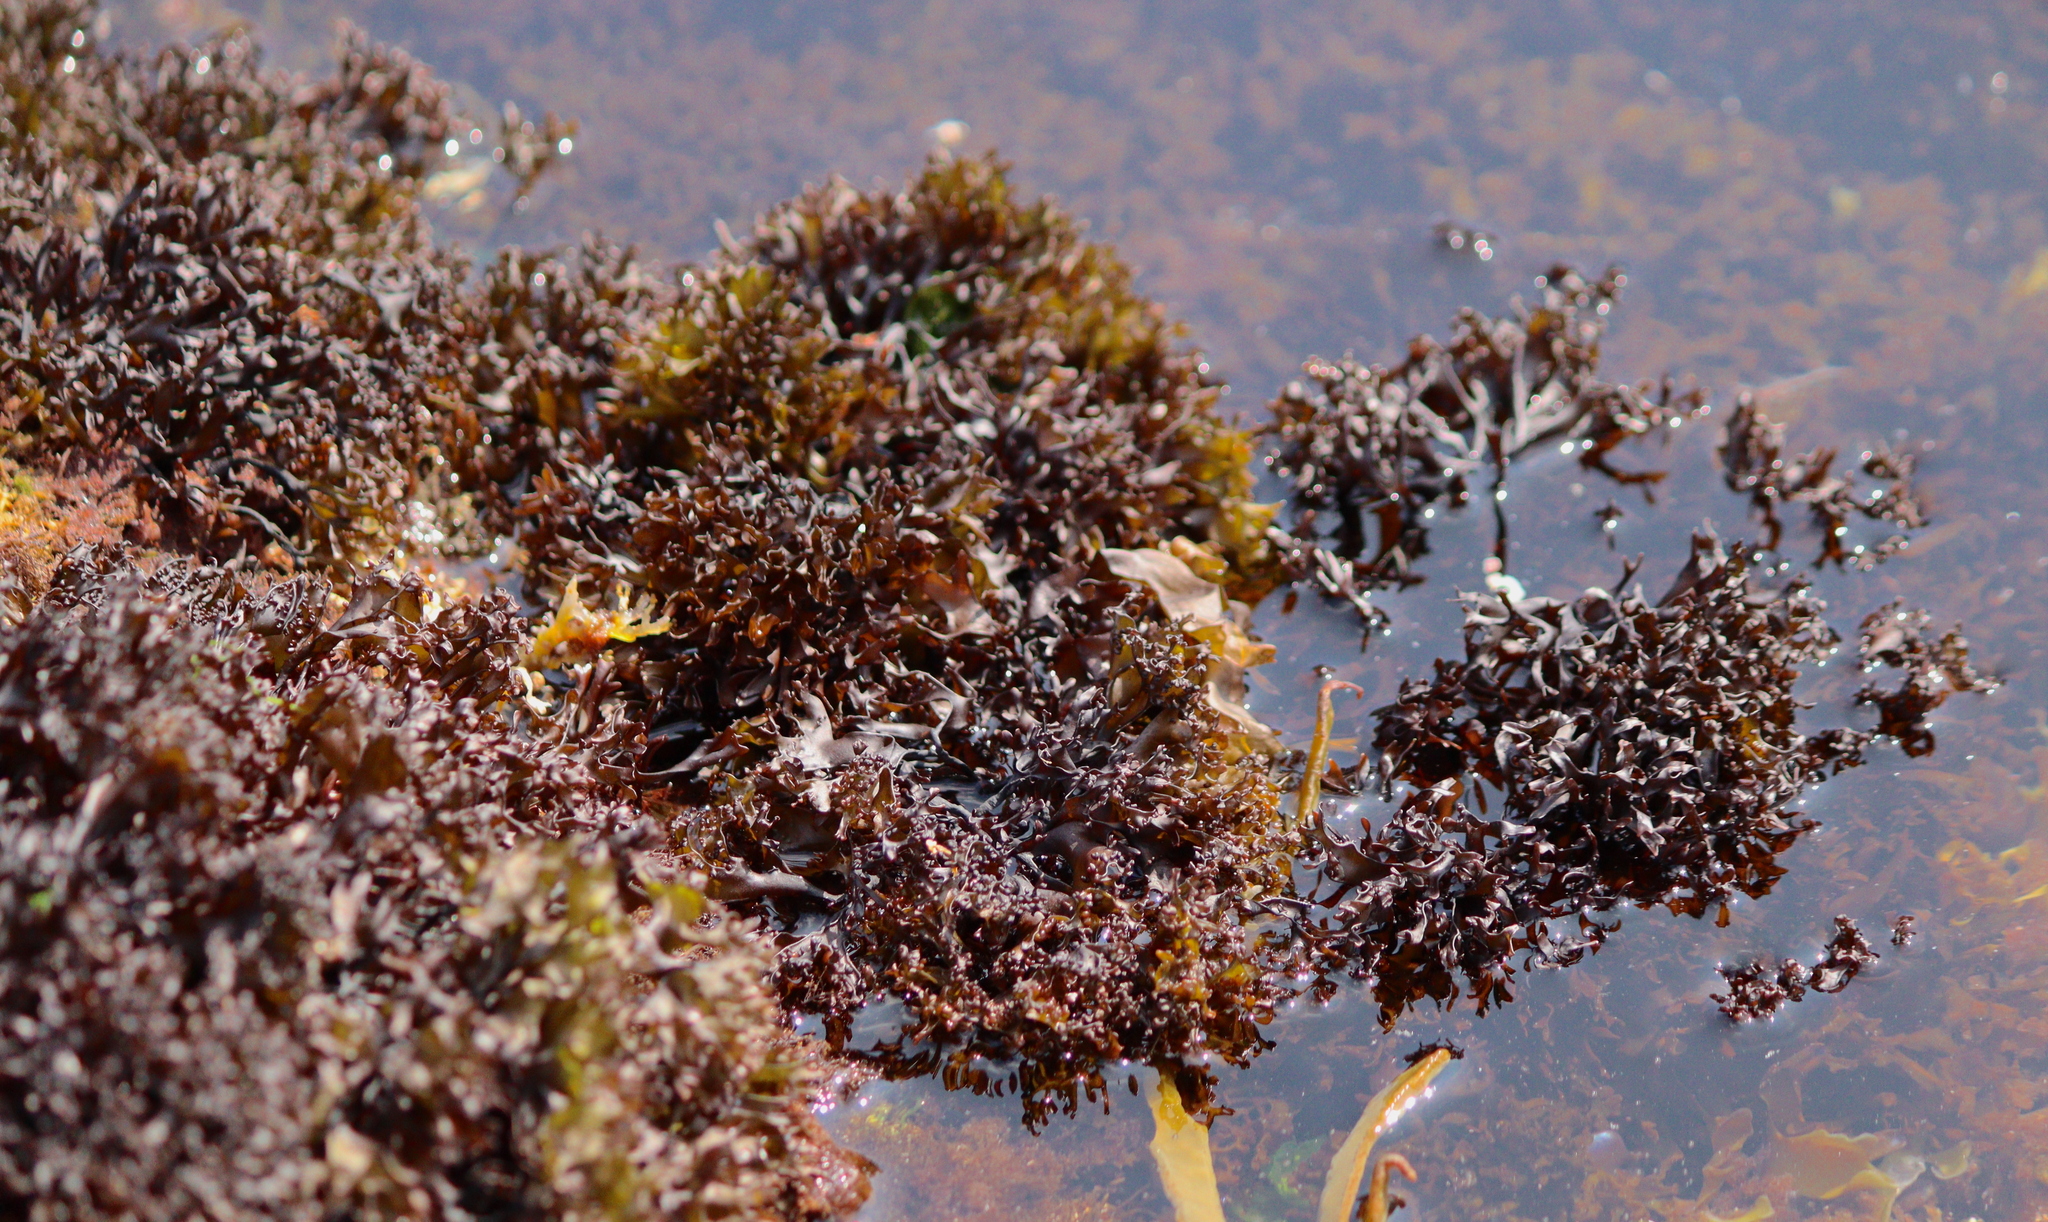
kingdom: Plantae
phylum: Rhodophyta
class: Florideophyceae
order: Gigartinales
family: Gigartinaceae
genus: Chondrus
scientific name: Chondrus crispus
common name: Carrageen
